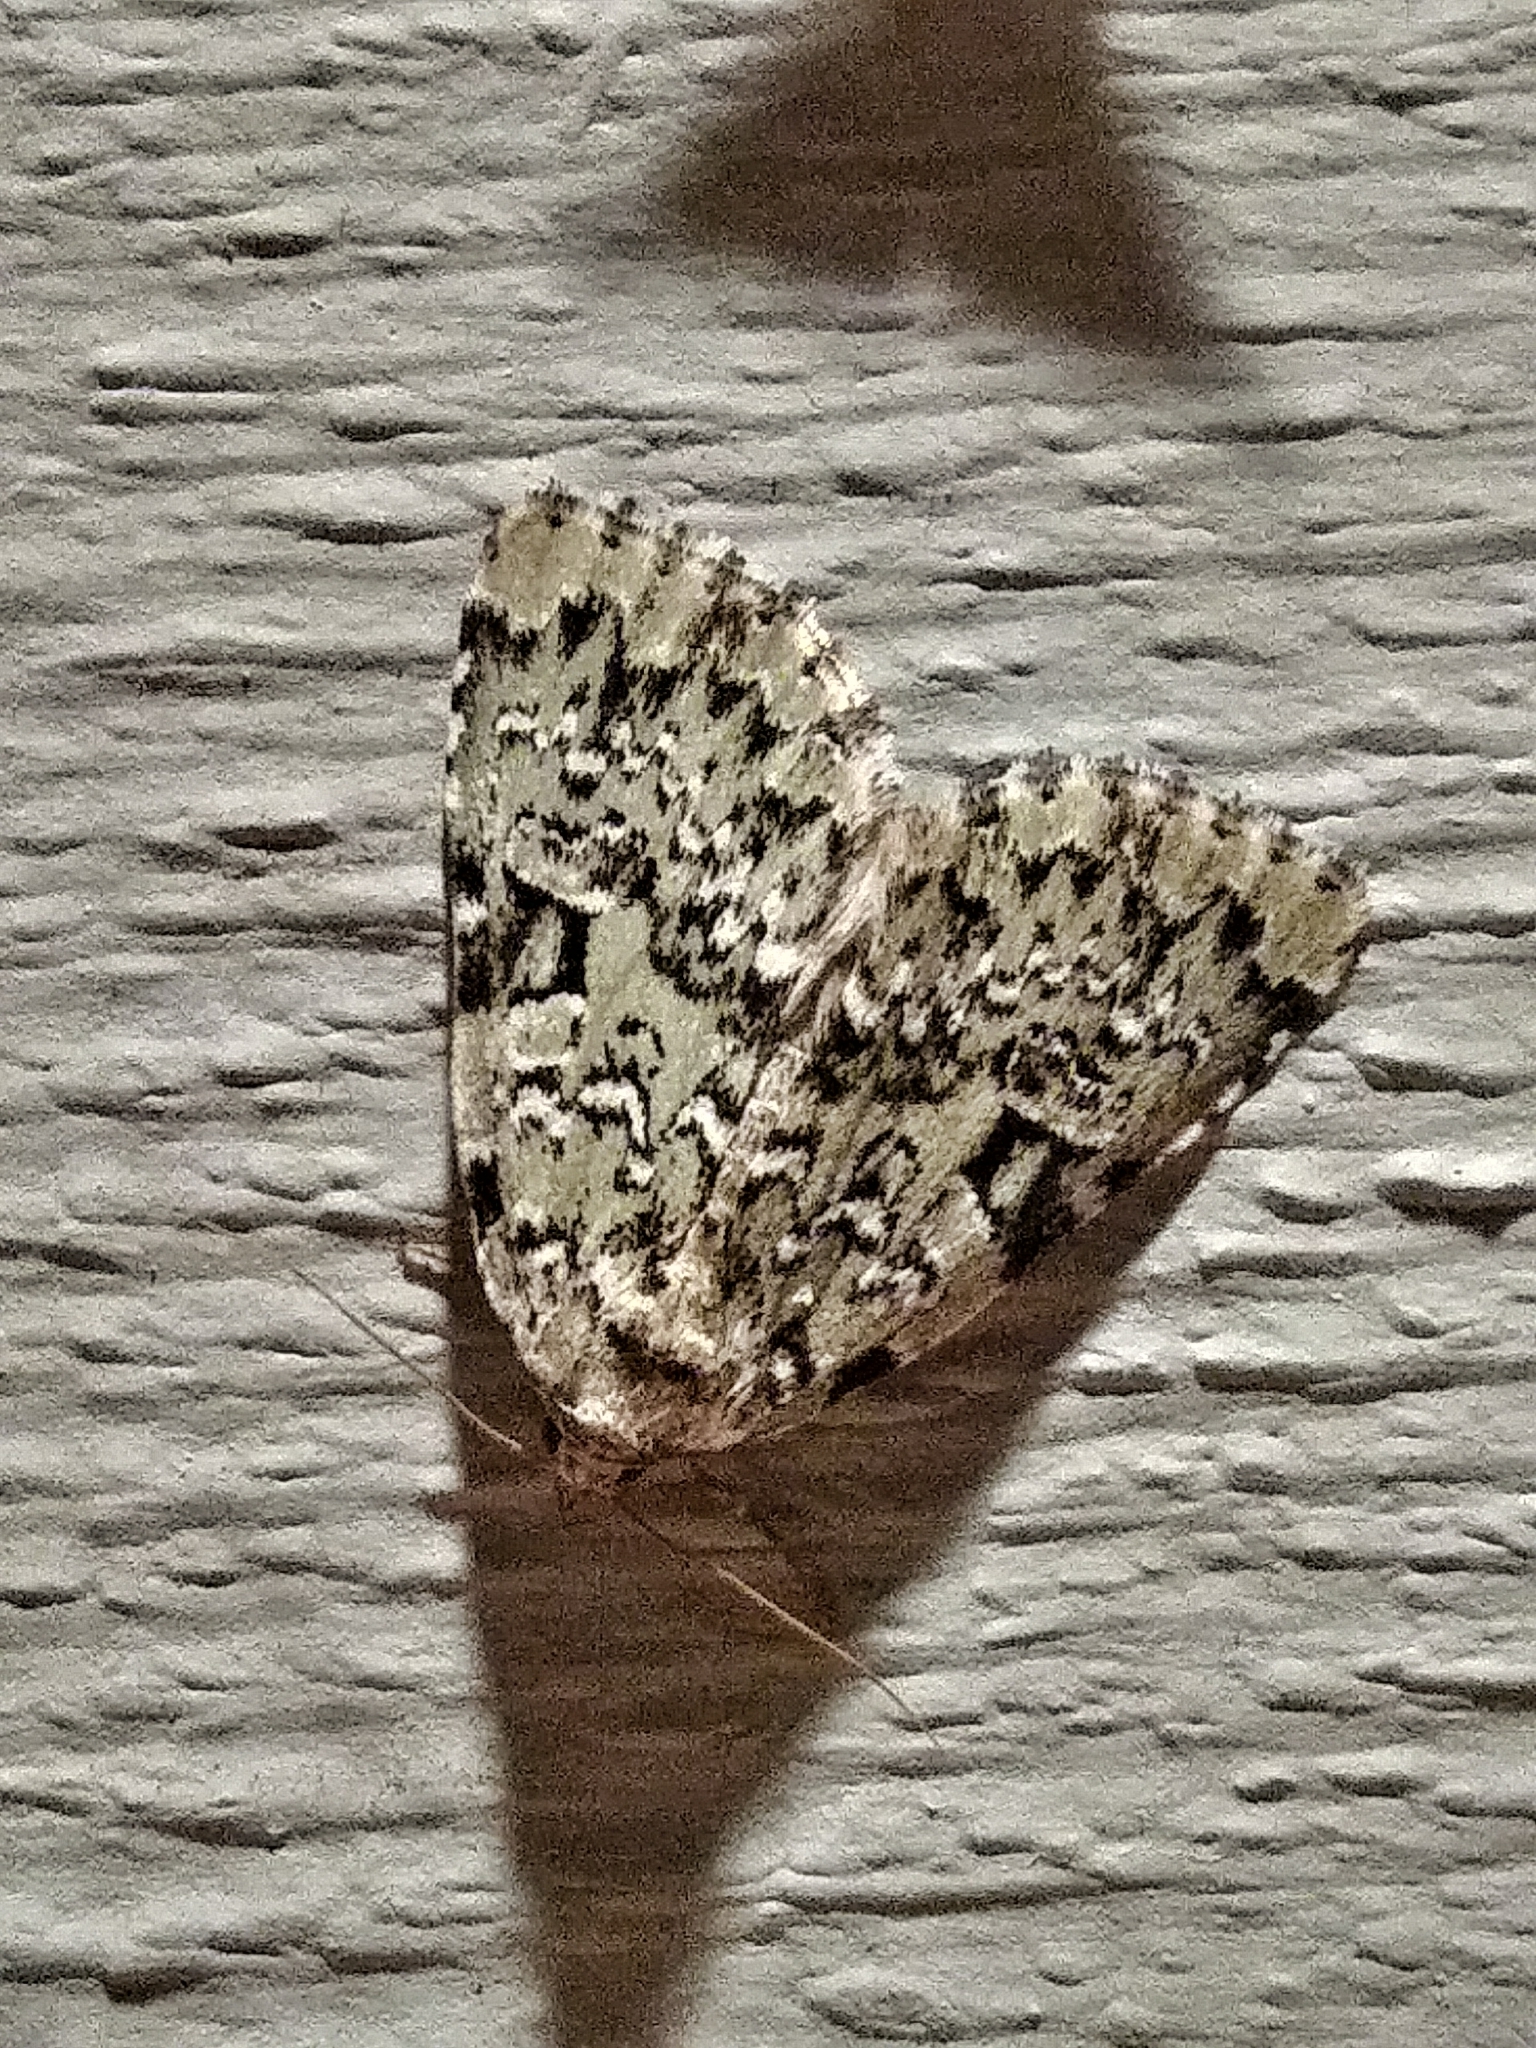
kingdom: Animalia
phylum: Arthropoda
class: Insecta
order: Lepidoptera
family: Noctuidae
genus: Leuconycta
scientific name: Leuconycta diphteroides
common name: Green leuconycta moth
